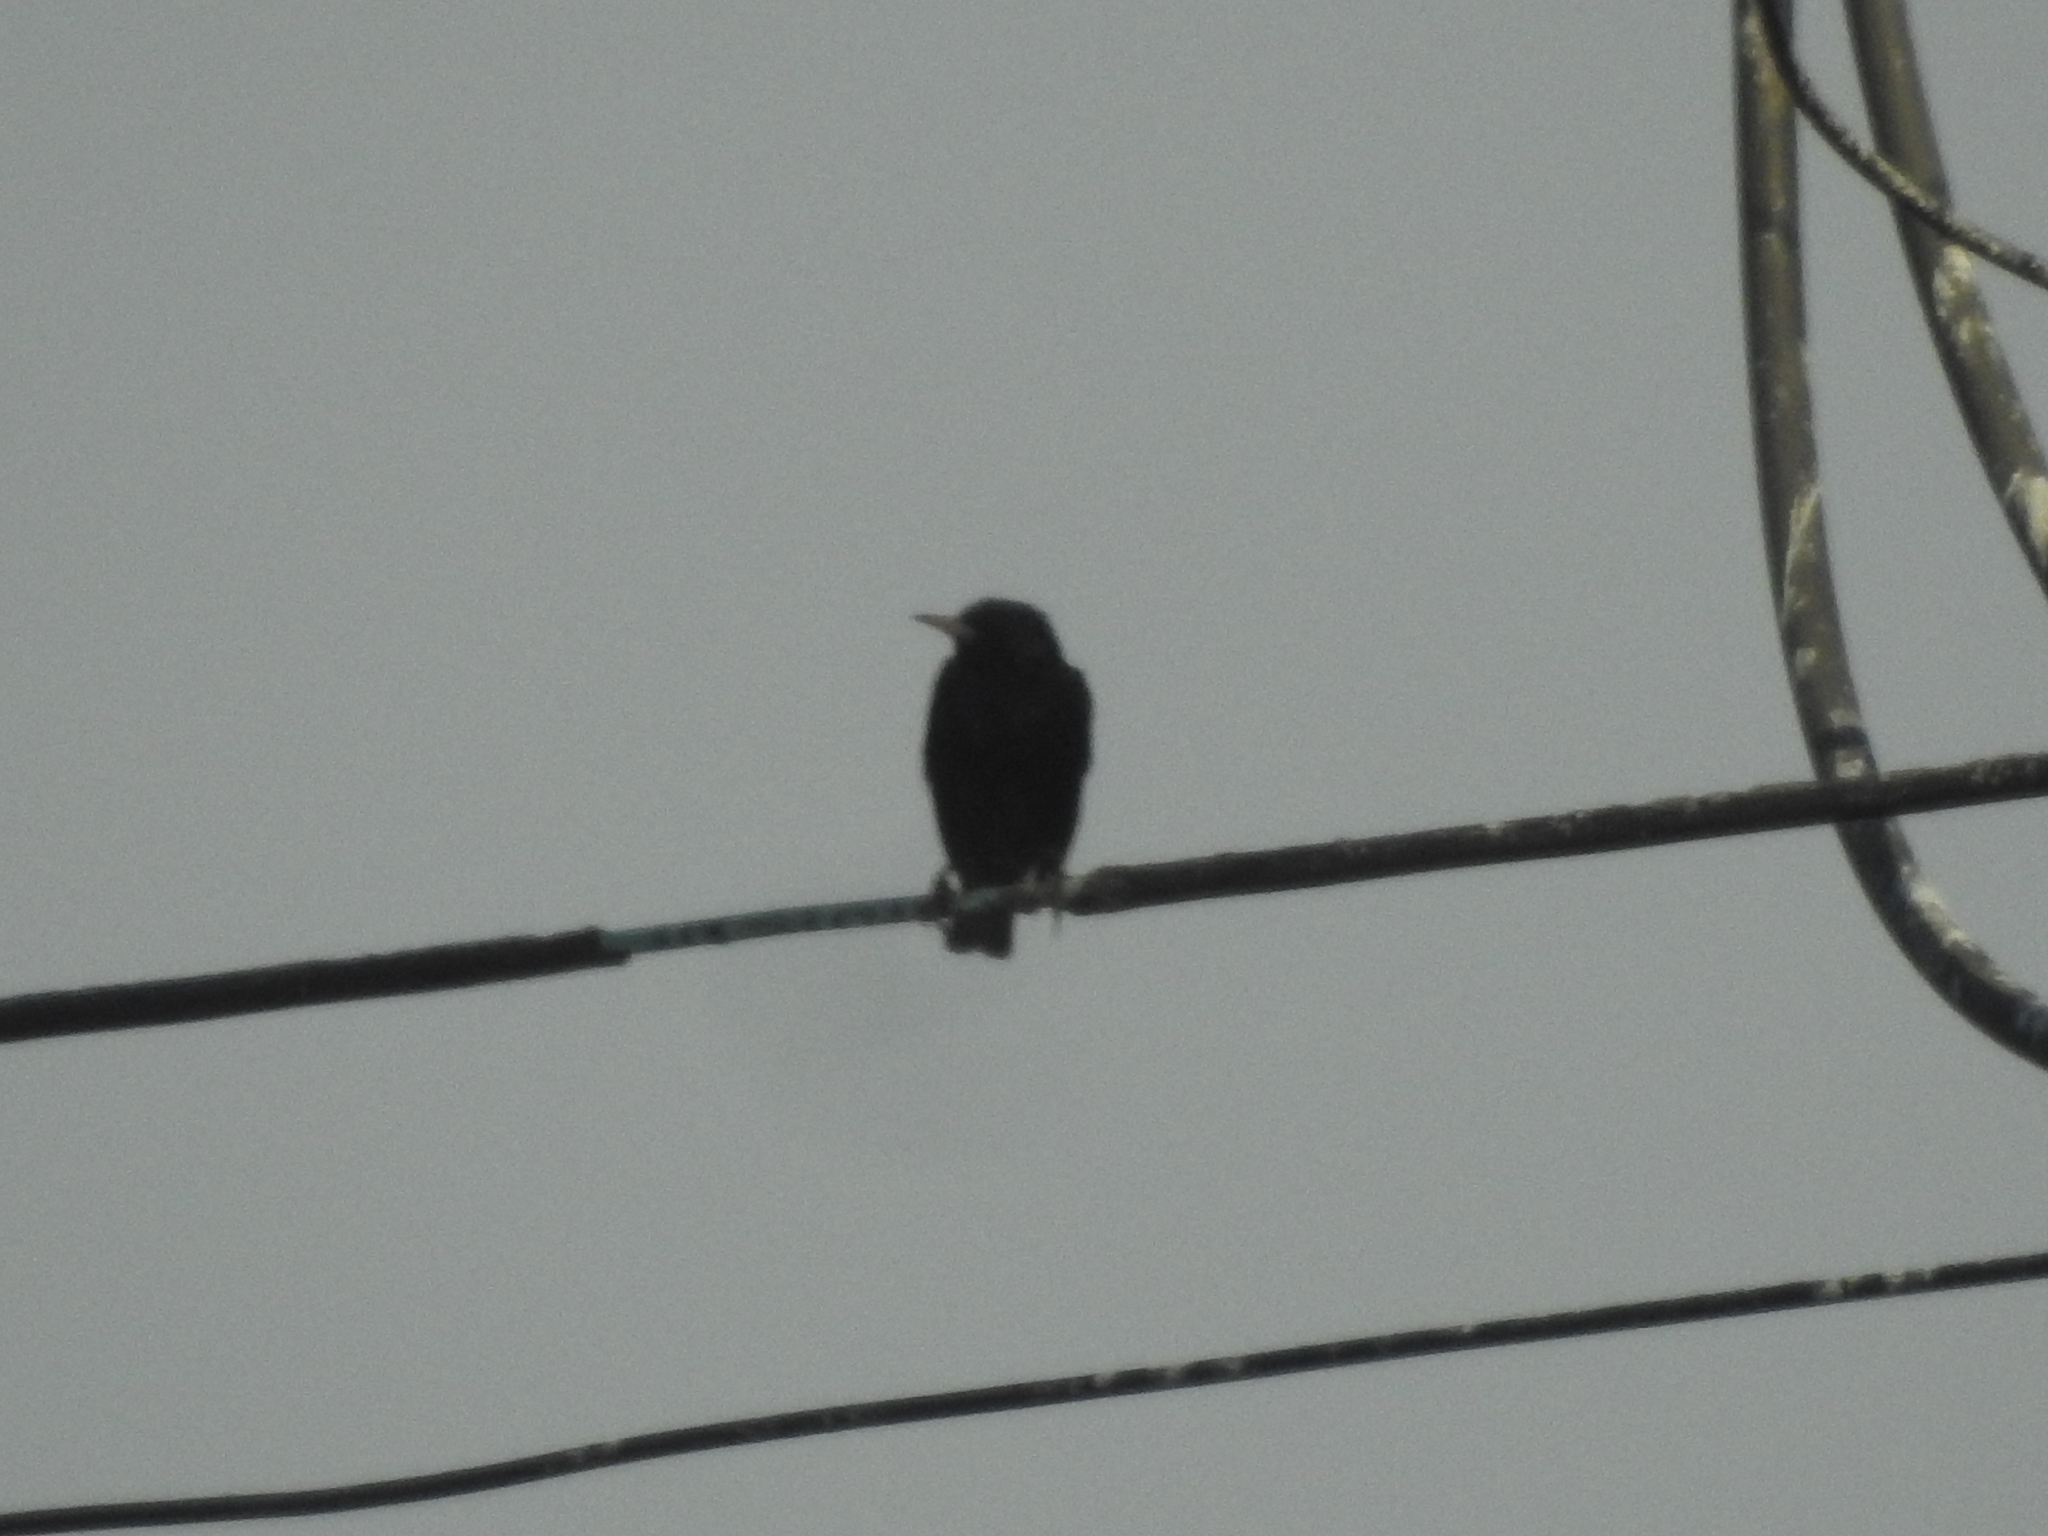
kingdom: Animalia
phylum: Chordata
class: Aves
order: Passeriformes
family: Sturnidae
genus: Sturnus
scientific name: Sturnus vulgaris
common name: Common starling
